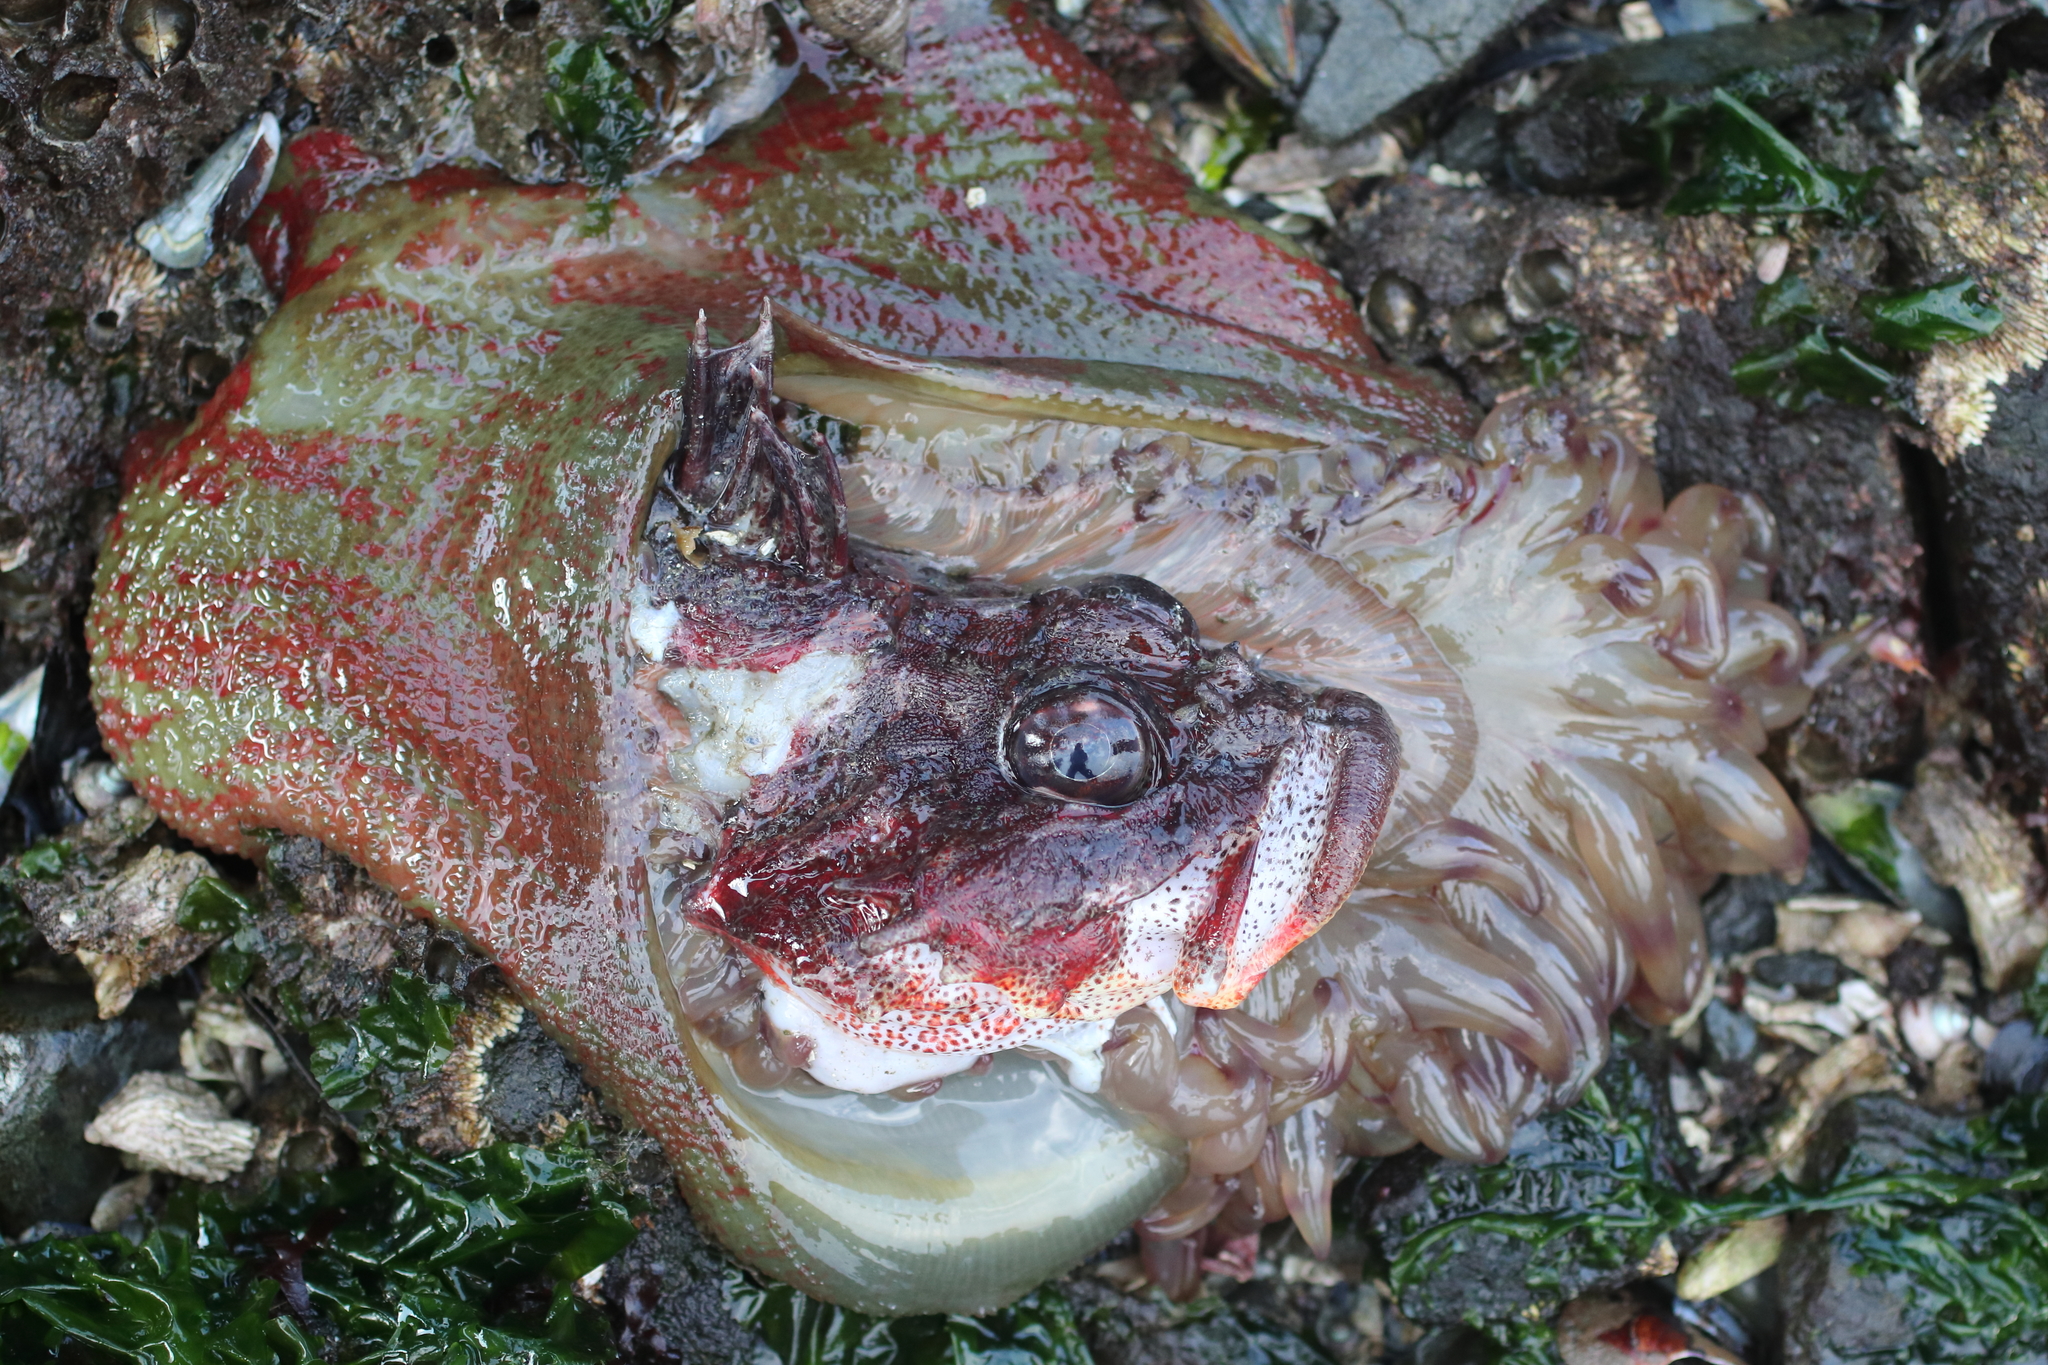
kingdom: Animalia
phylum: Cnidaria
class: Anthozoa
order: Actiniaria
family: Actiniidae
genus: Urticina
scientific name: Urticina grebelnyi
